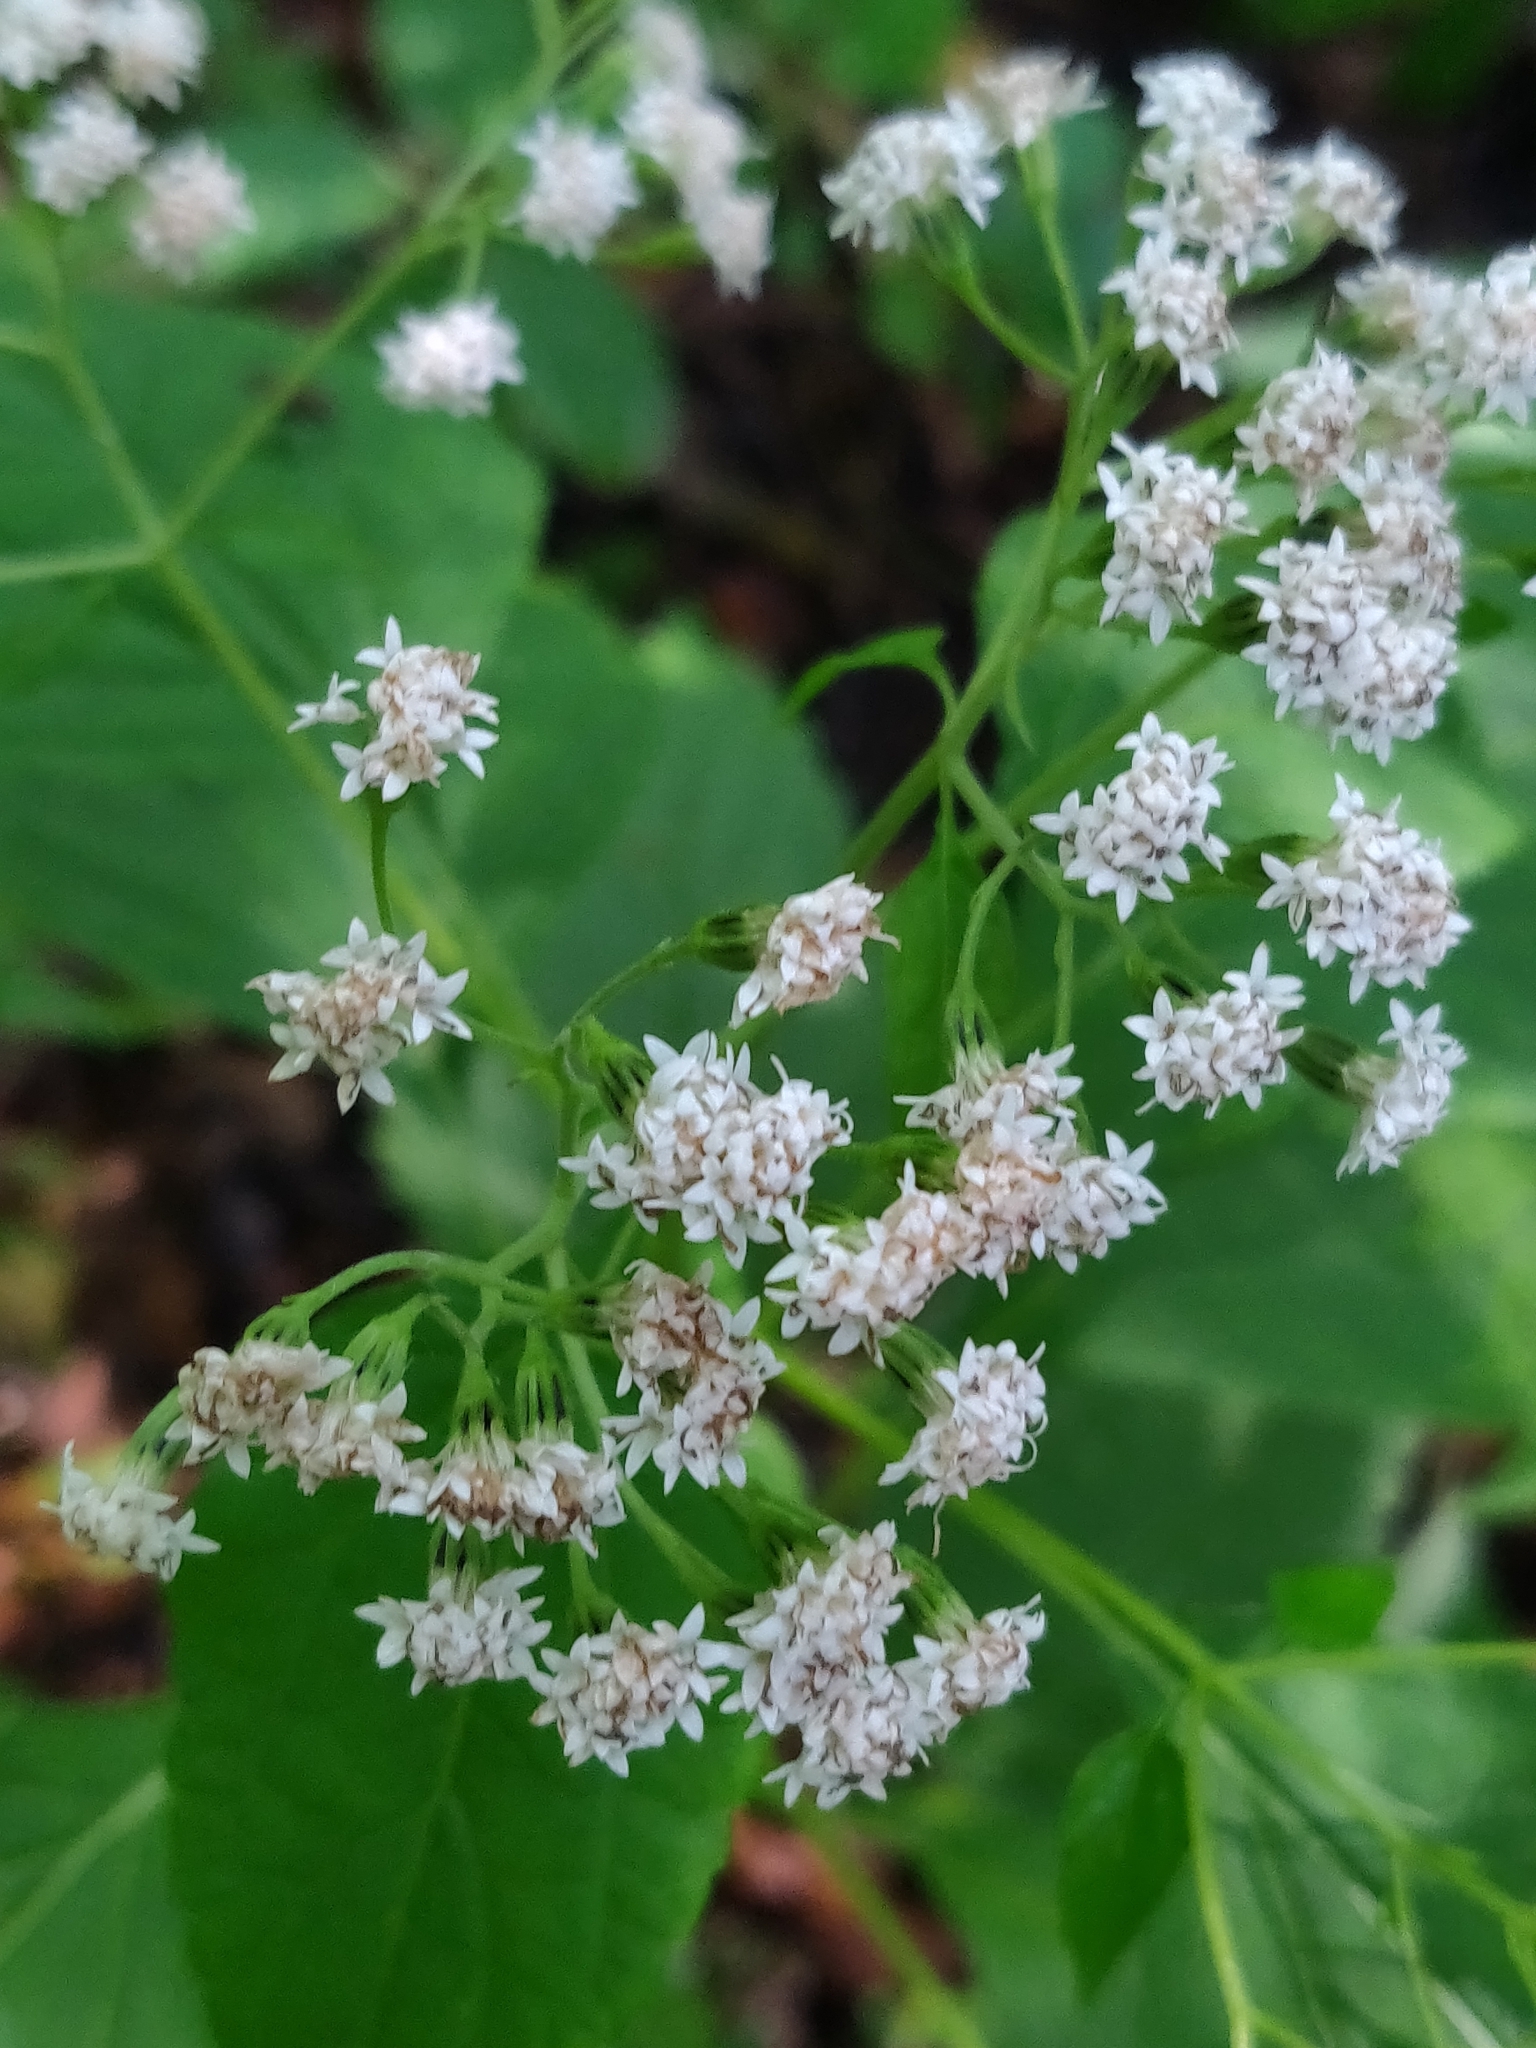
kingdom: Plantae
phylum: Tracheophyta
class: Magnoliopsida
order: Asterales
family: Asteraceae
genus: Ageratina
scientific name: Ageratina altissima
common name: White snakeroot
